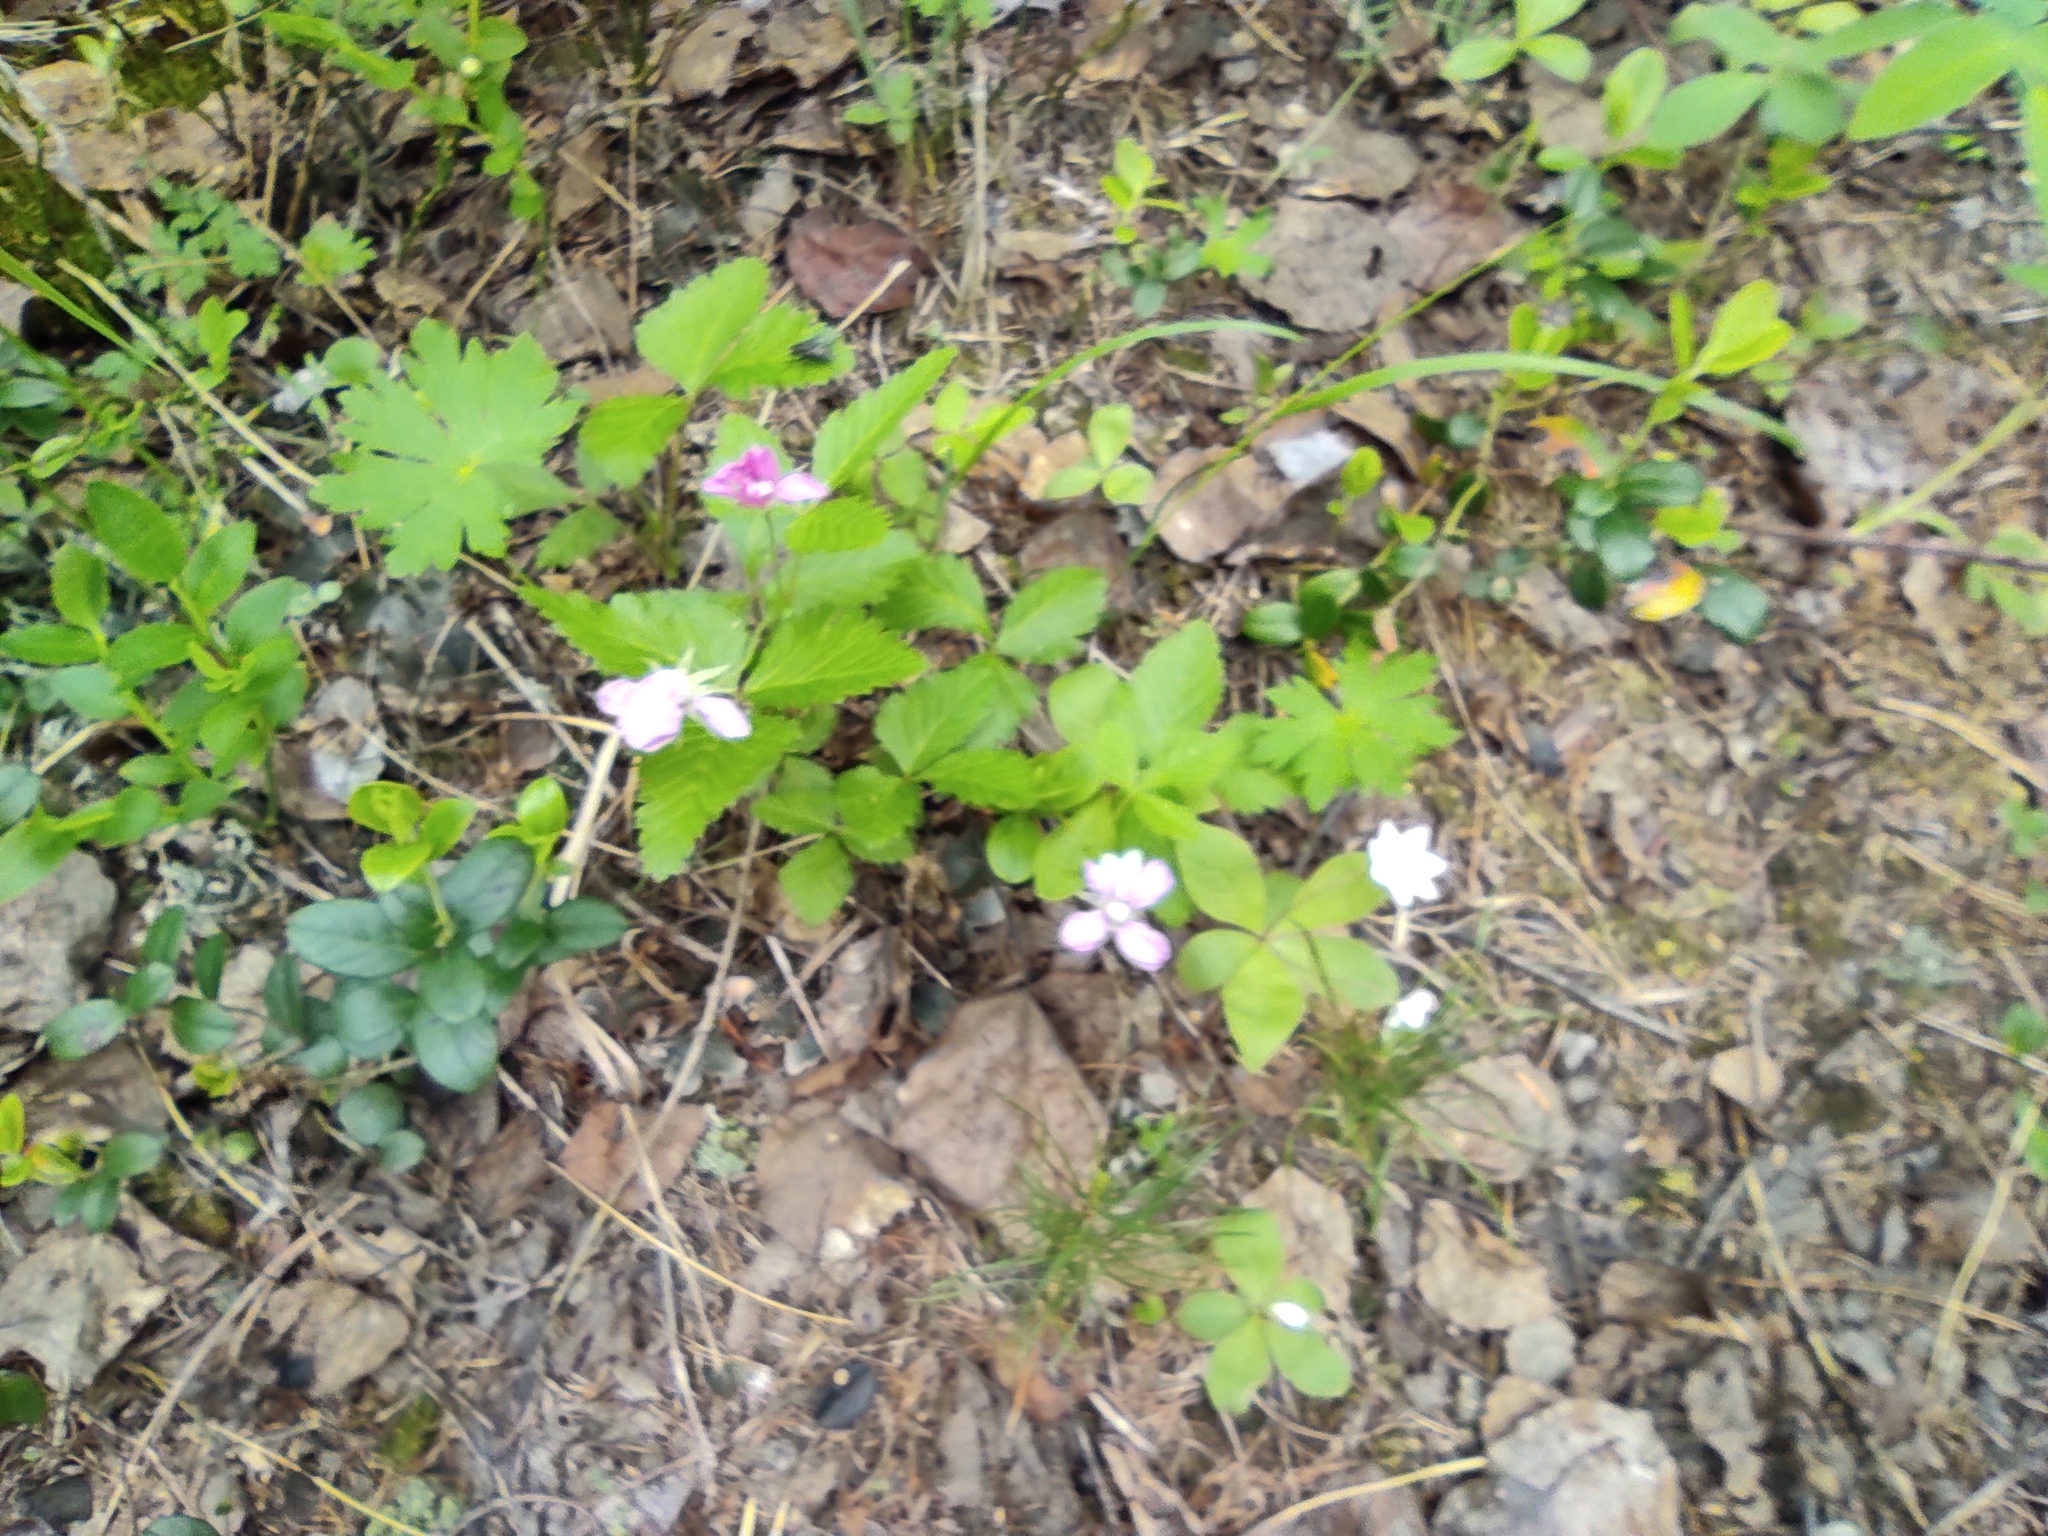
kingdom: Plantae
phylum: Tracheophyta
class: Magnoliopsida
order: Rosales
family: Rosaceae
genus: Rubus
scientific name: Rubus arcticus
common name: Arctic bramble
